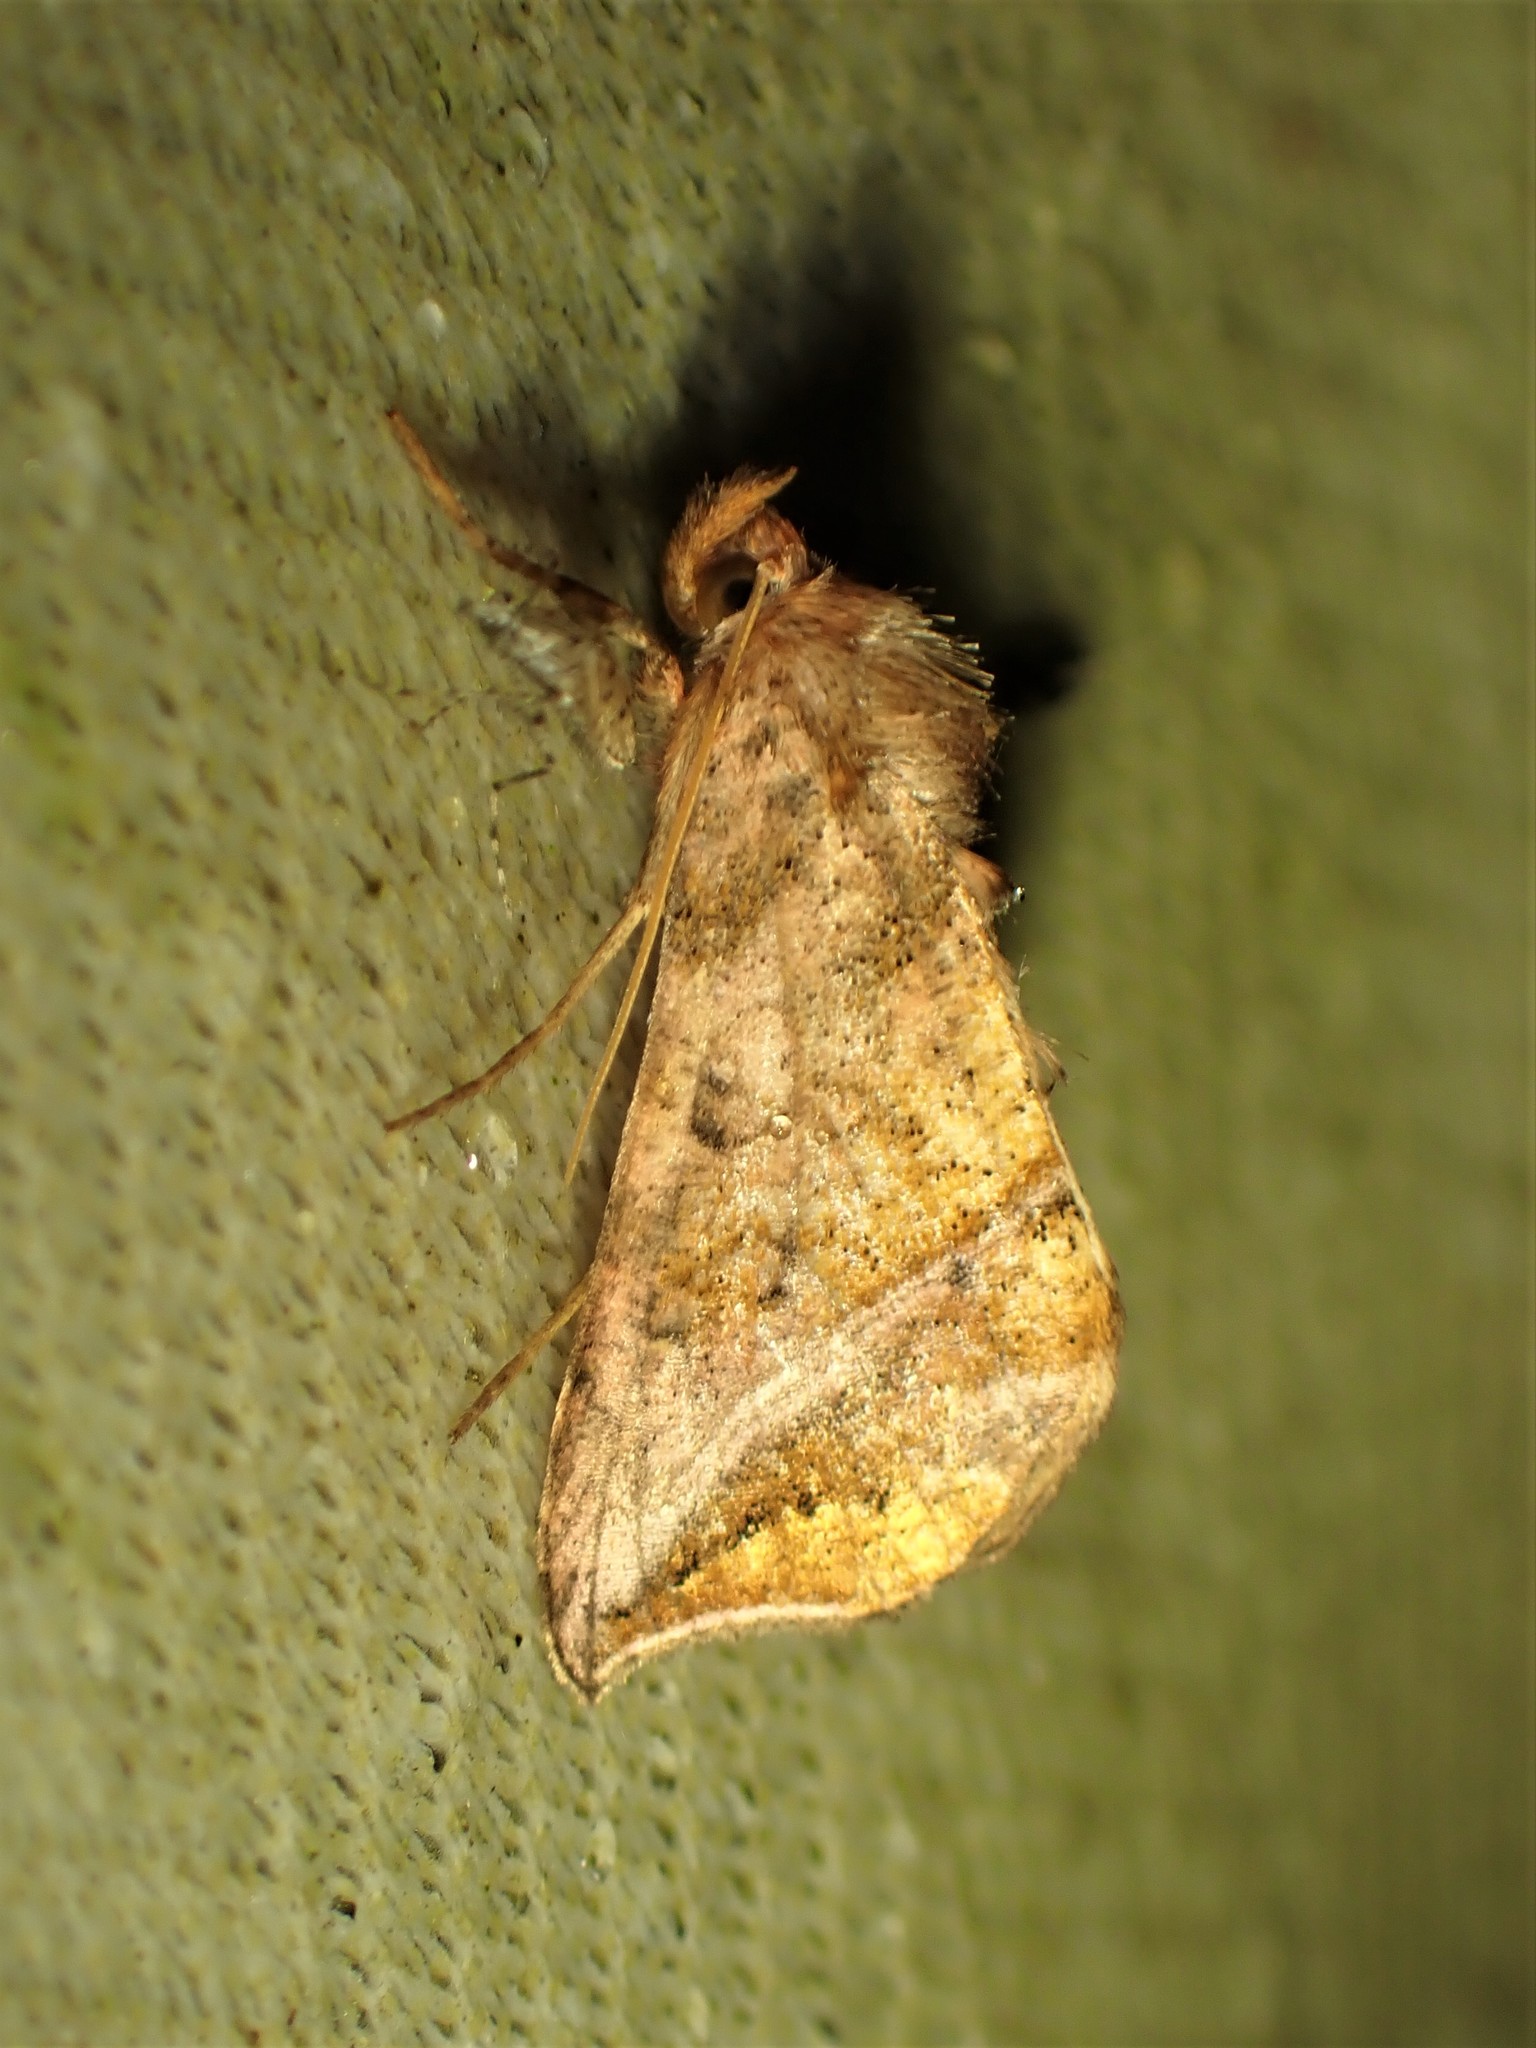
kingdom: Animalia
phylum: Arthropoda
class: Insecta
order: Lepidoptera
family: Noctuidae
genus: Pseudeva
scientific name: Pseudeva purpurigera
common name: Straight-lined looper moth
